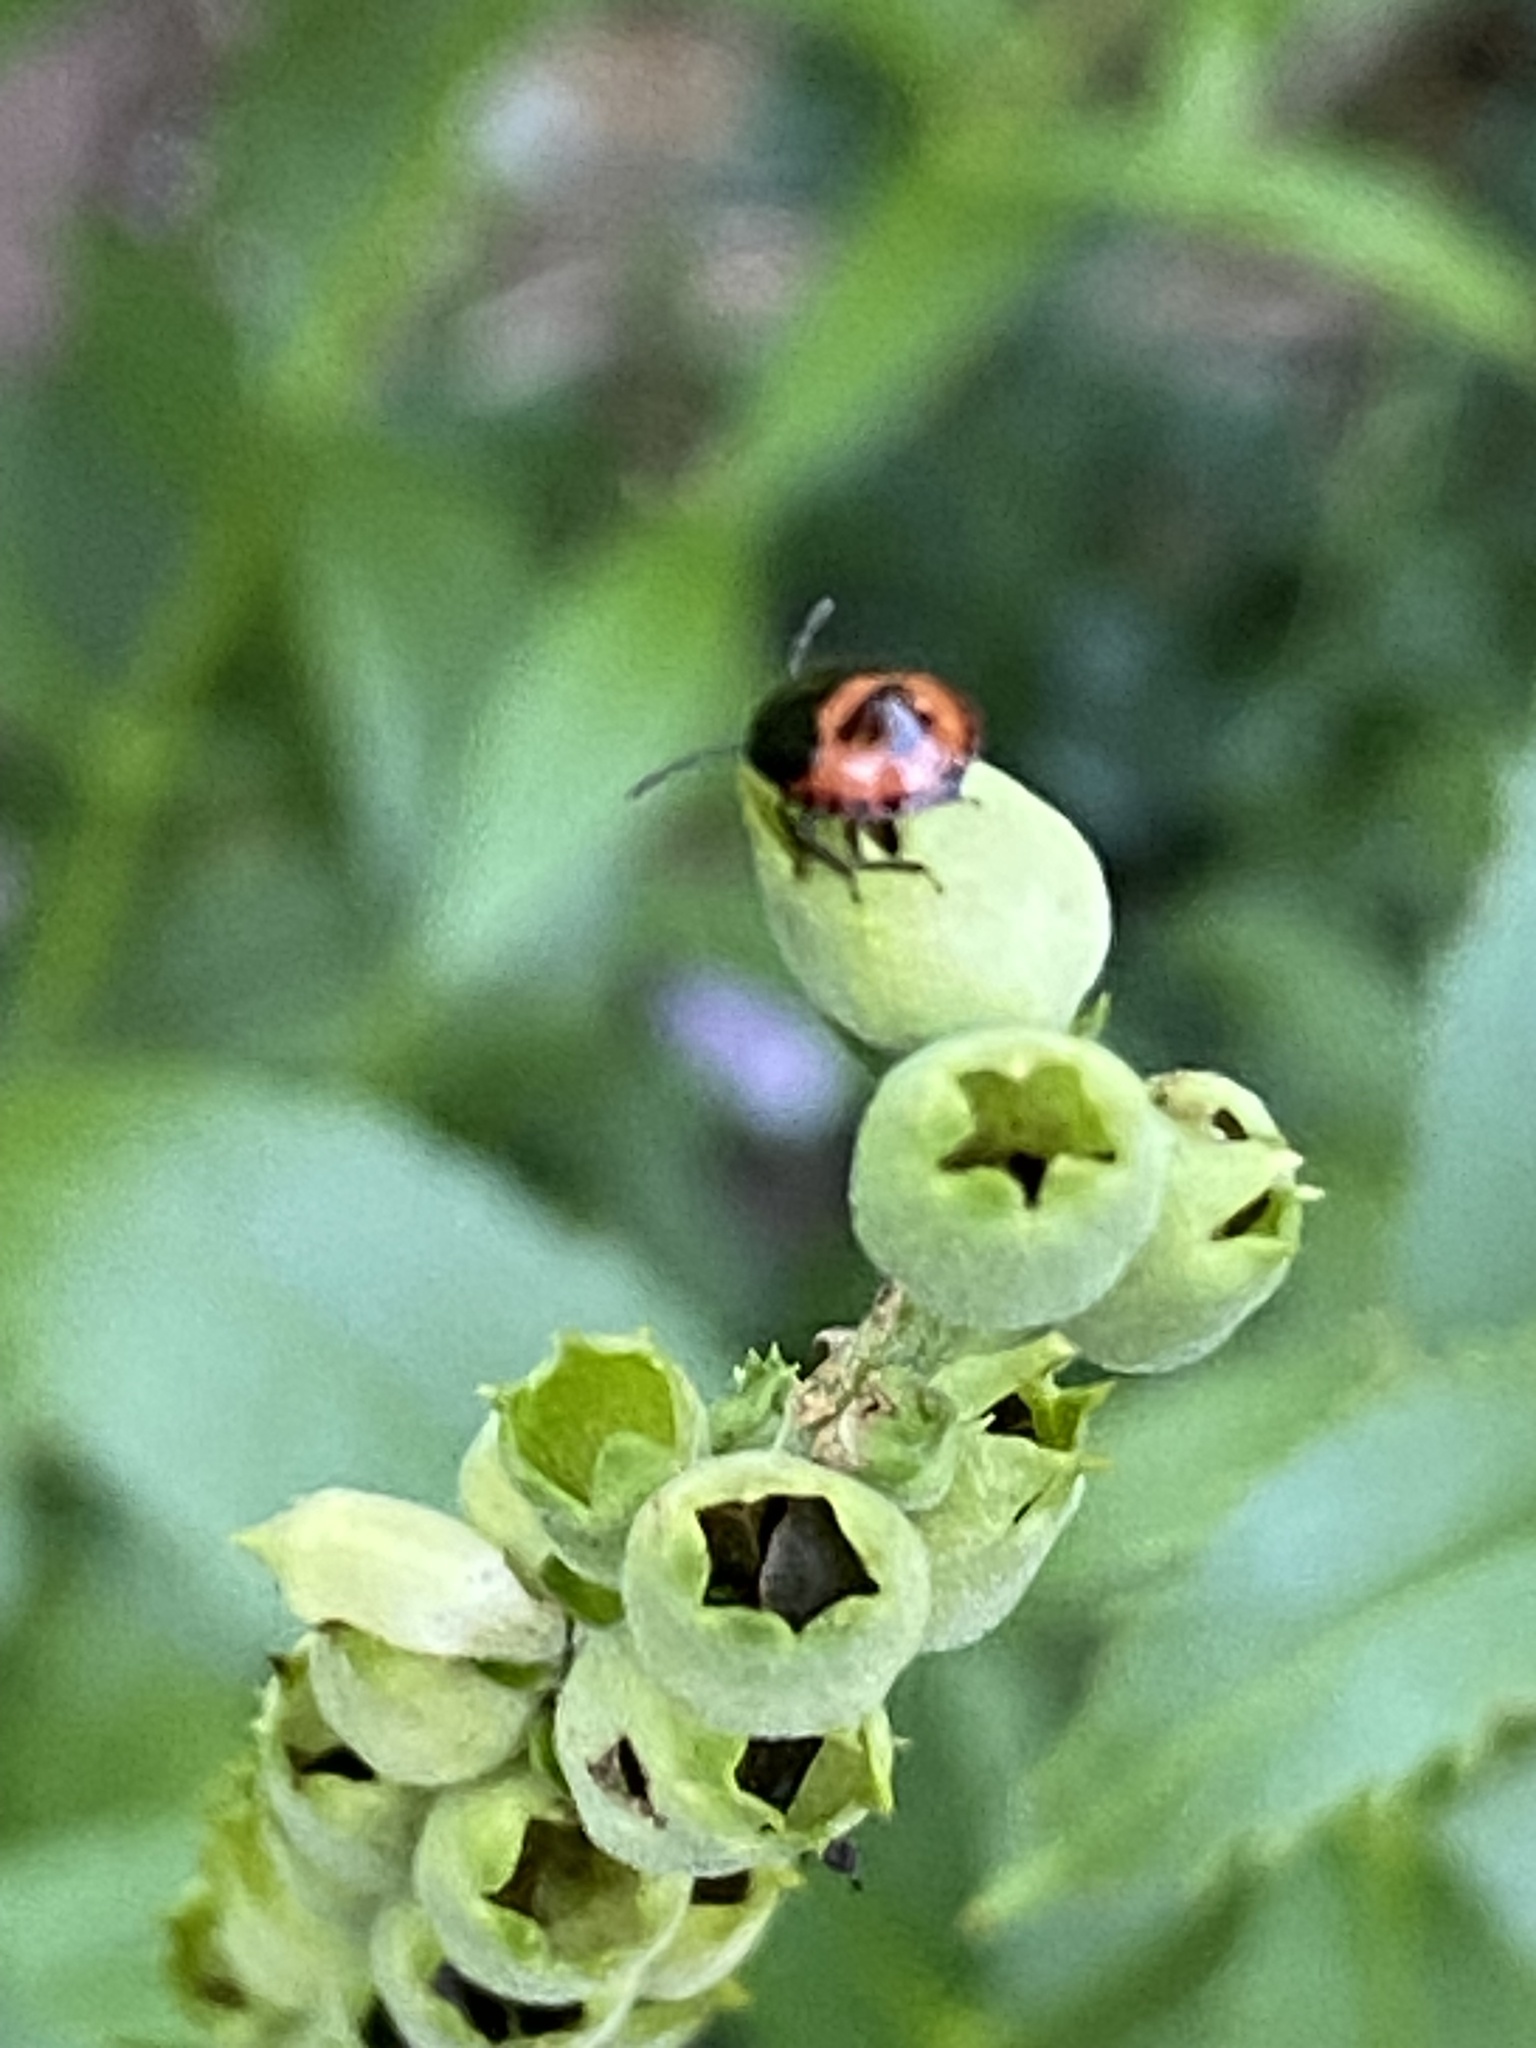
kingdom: Animalia
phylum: Arthropoda
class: Insecta
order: Hemiptera
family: Cydnidae
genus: Sehirus
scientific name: Sehirus cinctus
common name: White-margined burrower bug
